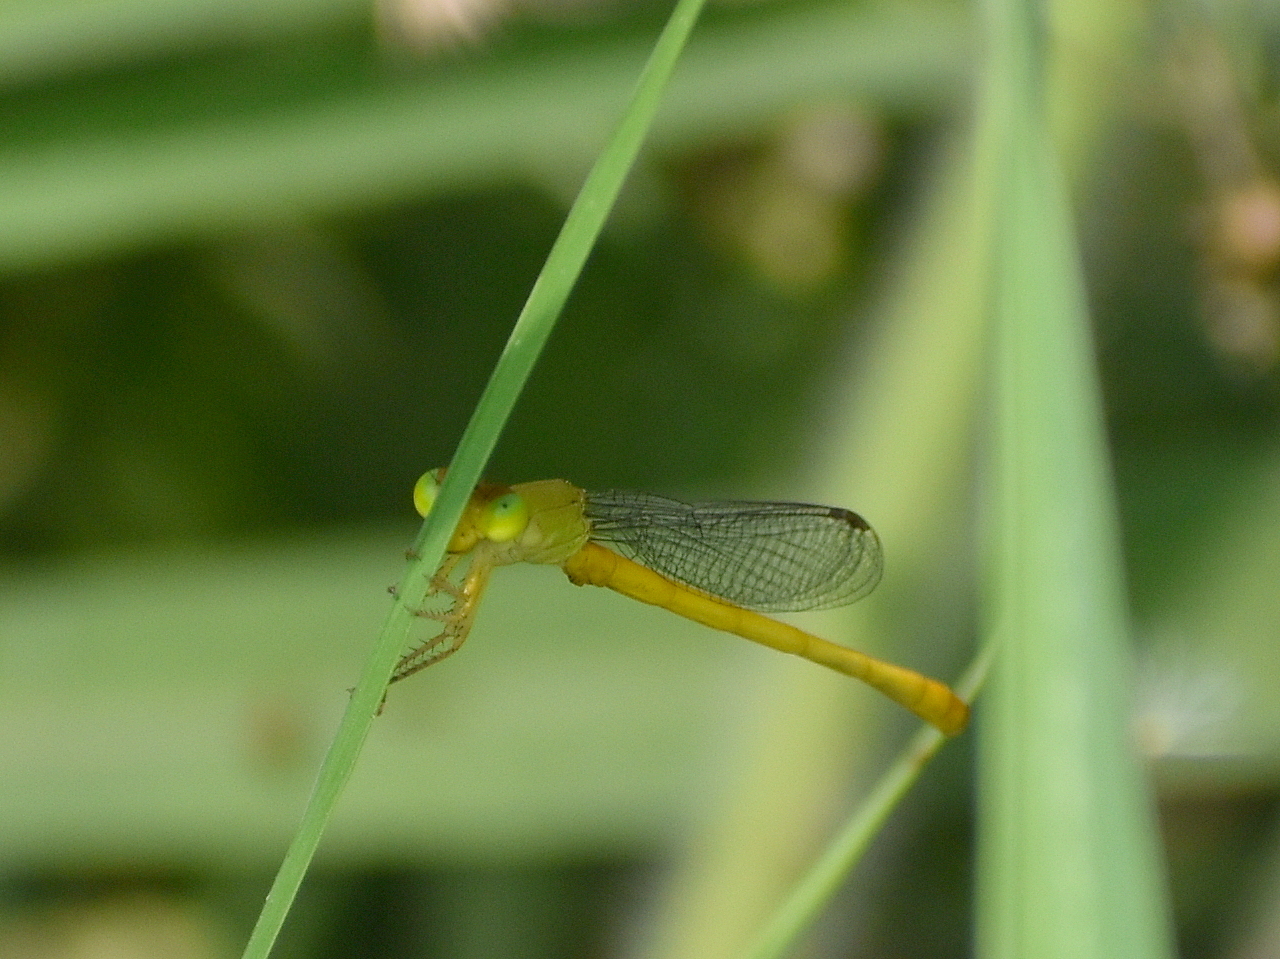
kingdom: Animalia
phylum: Arthropoda
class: Insecta
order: Odonata
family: Coenagrionidae
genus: Ceriagrion
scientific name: Ceriagrion coromandelianum
